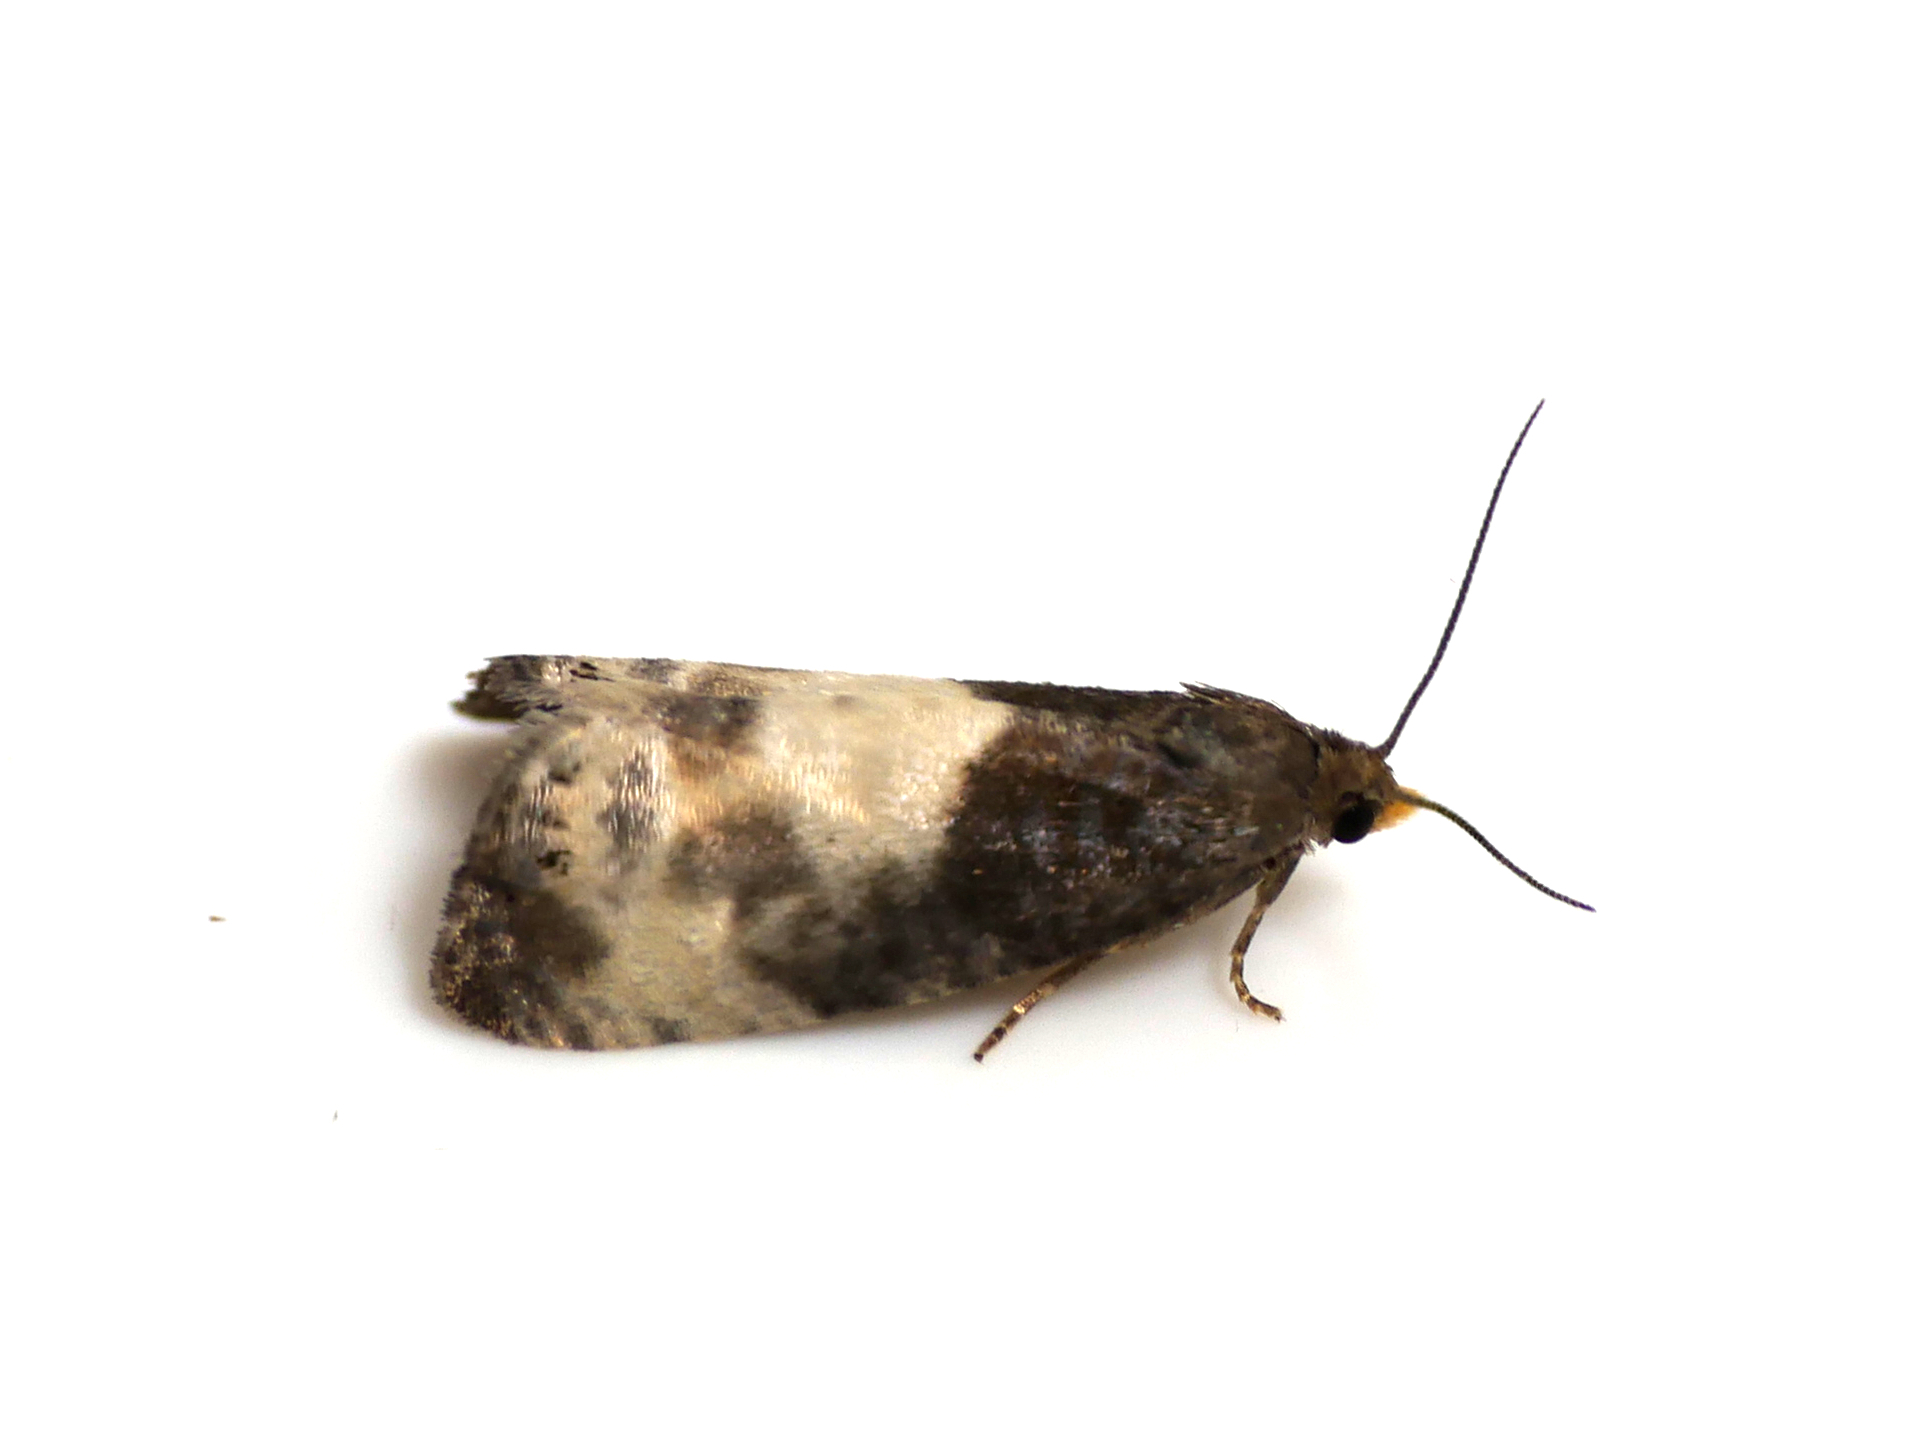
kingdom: Animalia
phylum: Arthropoda
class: Insecta
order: Lepidoptera
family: Tortricidae
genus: Notocelia
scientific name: Notocelia cynosbatella
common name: Yellow-faced bell moth
